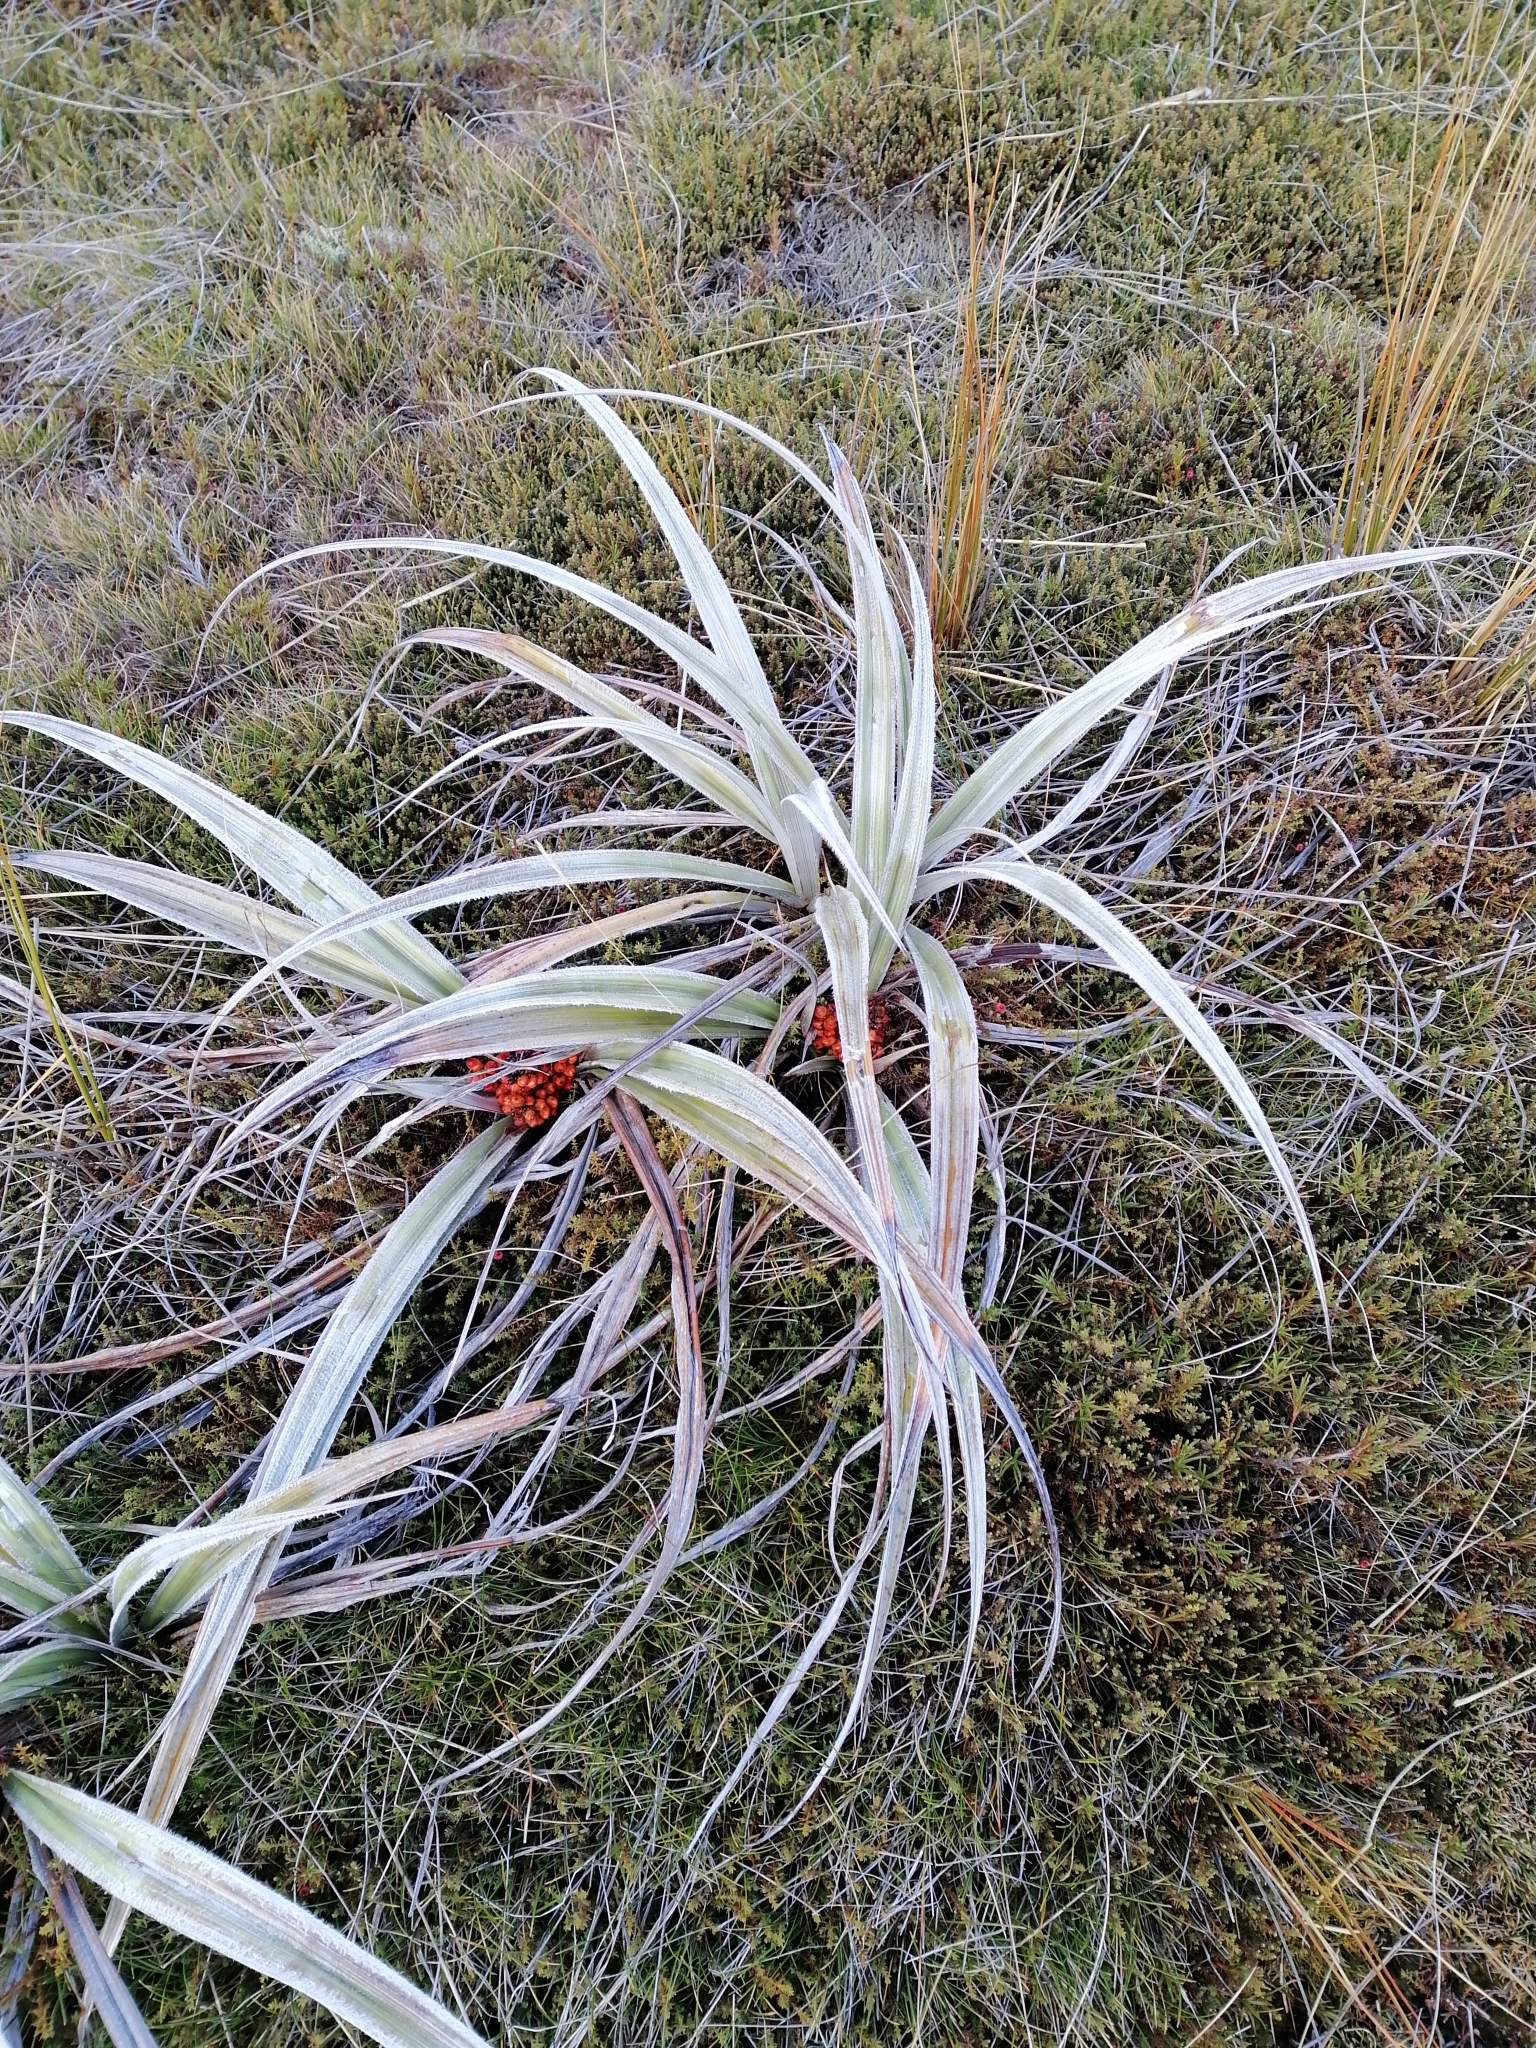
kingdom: Plantae
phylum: Tracheophyta
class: Liliopsida
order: Asparagales
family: Asteliaceae
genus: Astelia
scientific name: Astelia nervosa
